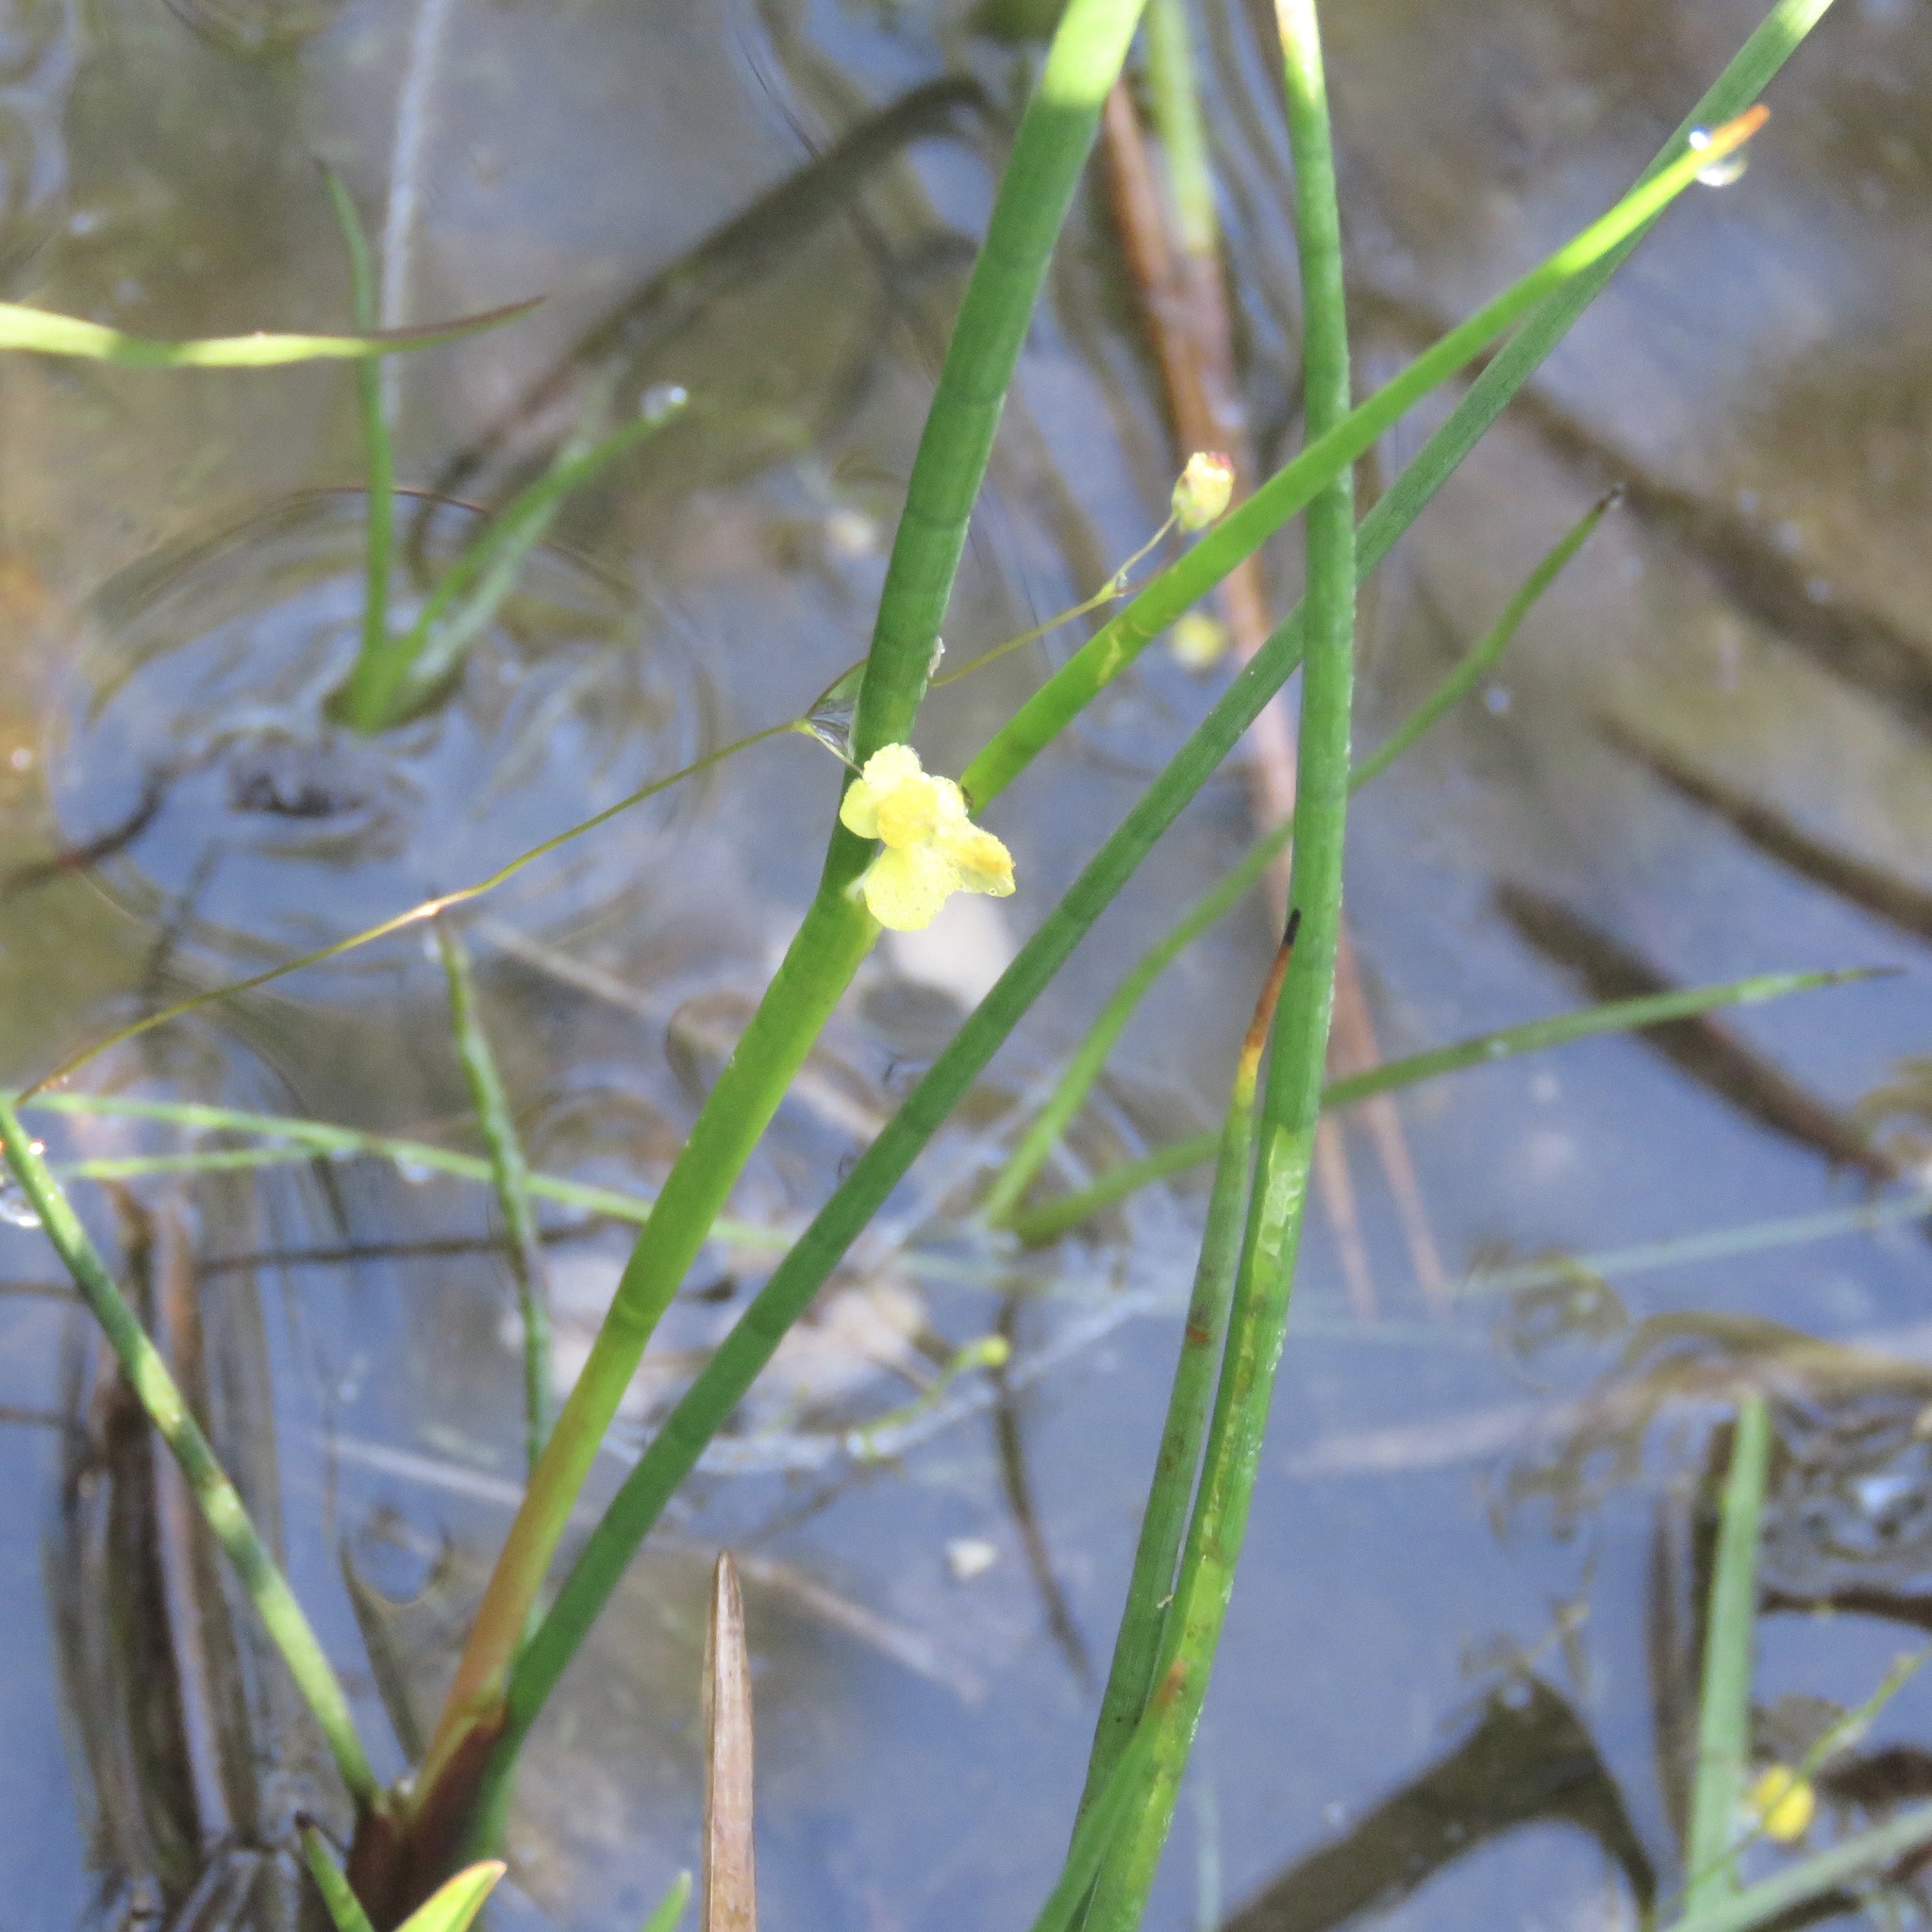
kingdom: Plantae
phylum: Tracheophyta
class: Magnoliopsida
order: Lamiales
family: Lentibulariaceae
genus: Utricularia
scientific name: Utricularia subulata
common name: Tiny bladderwort
